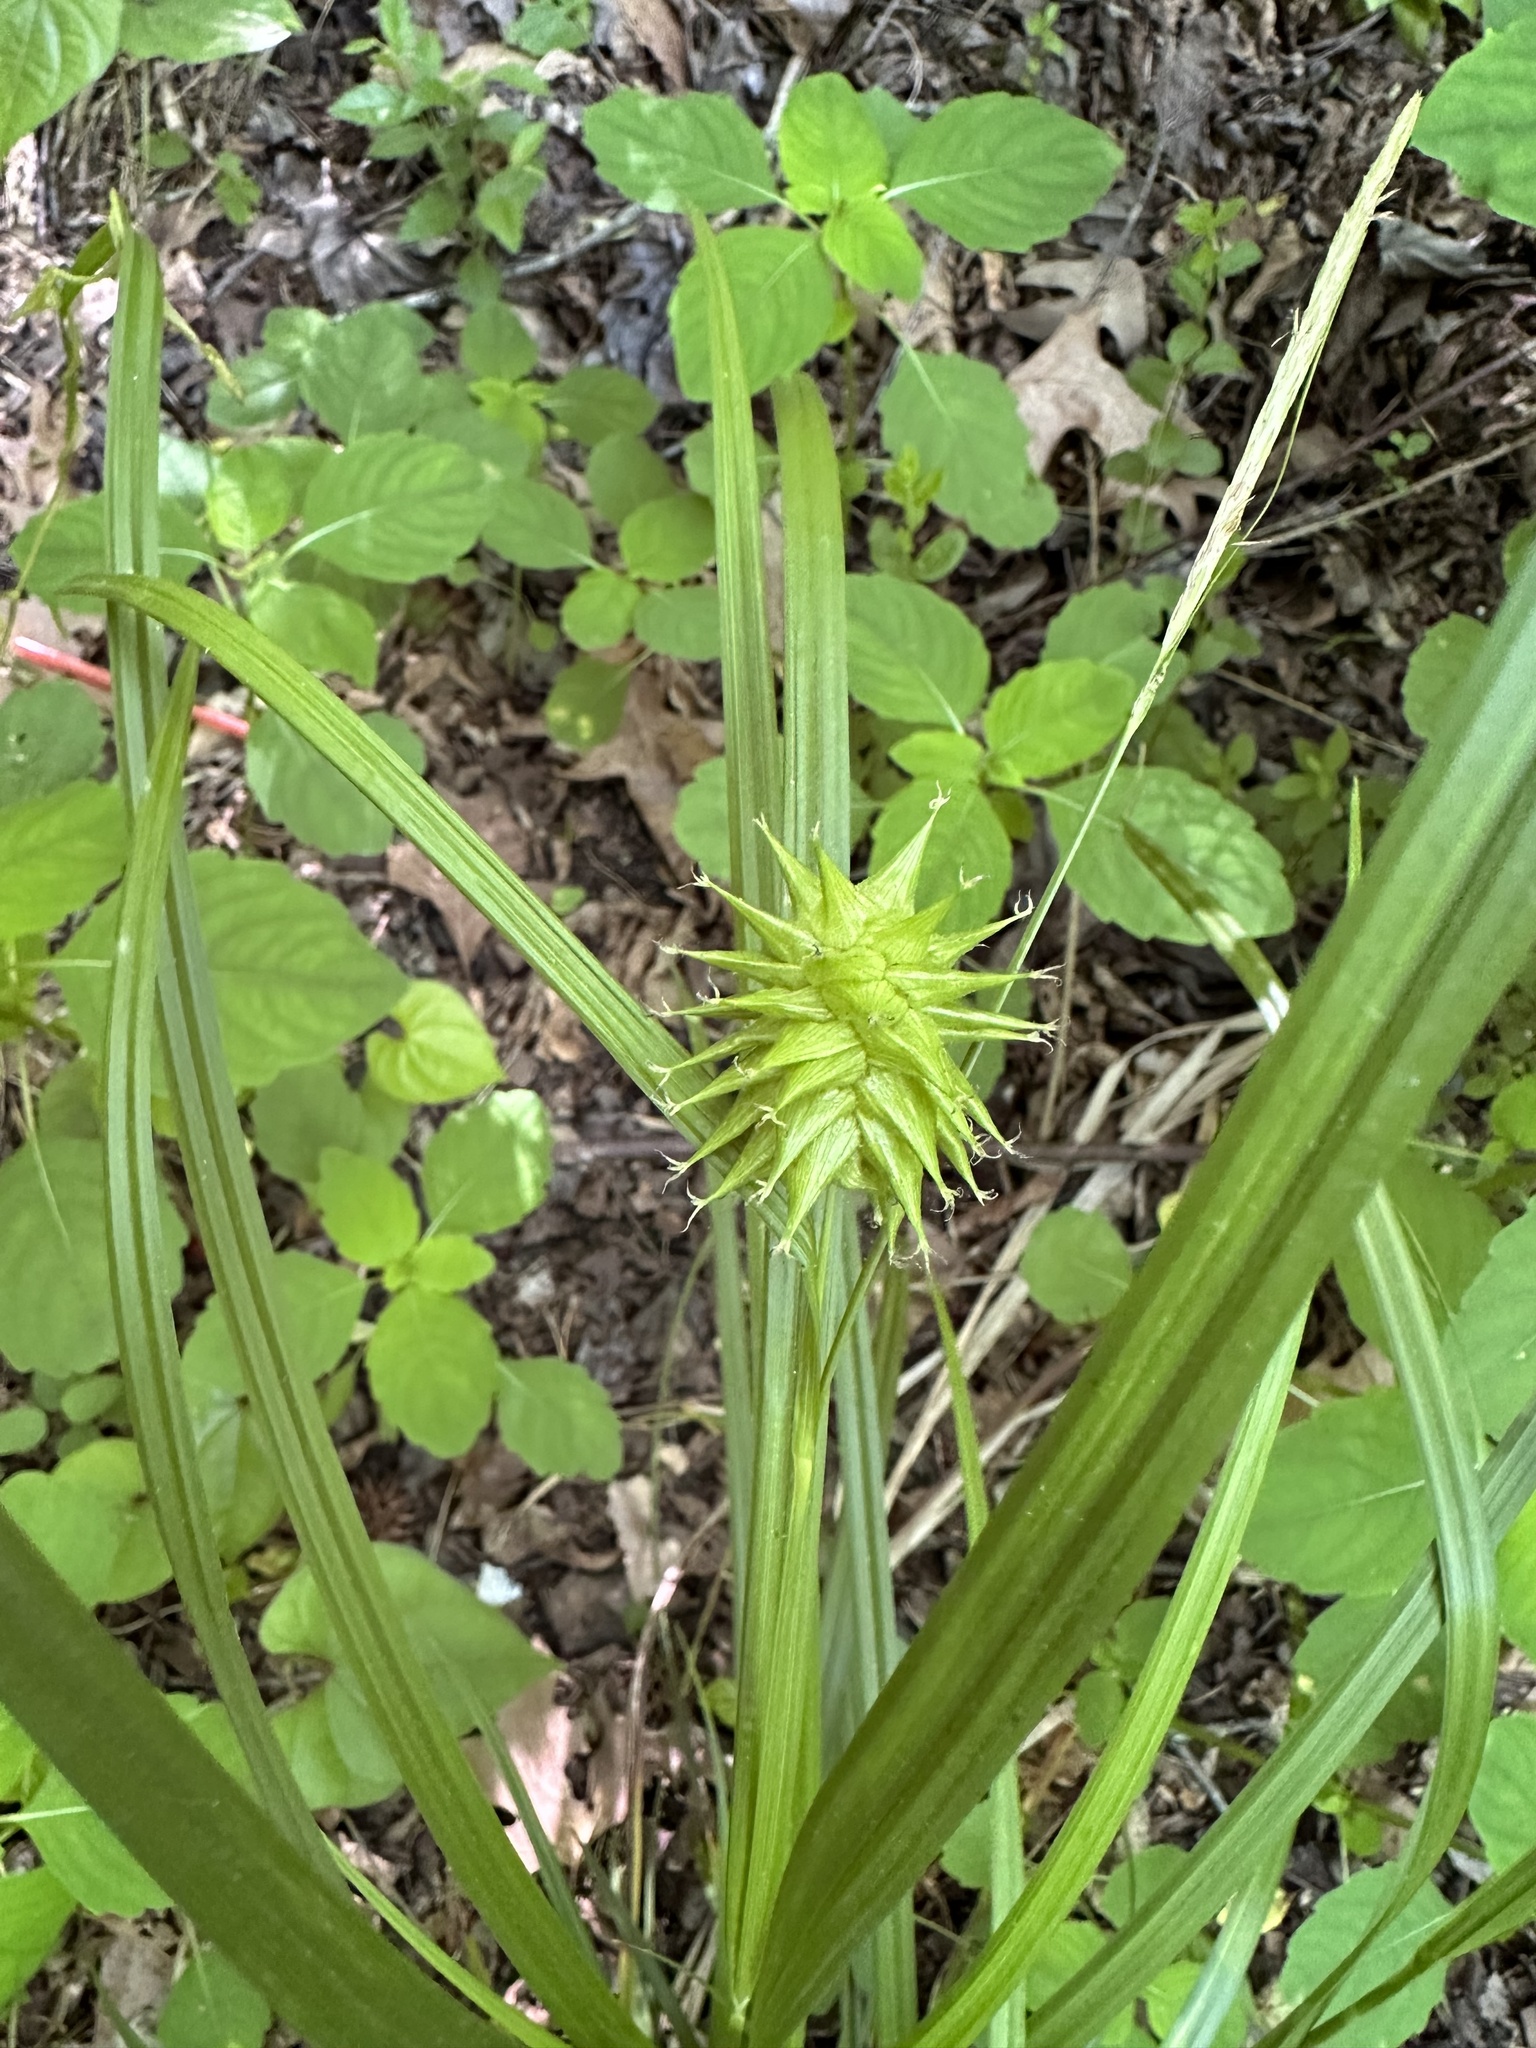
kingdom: Plantae
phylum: Tracheophyta
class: Liliopsida
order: Poales
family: Cyperaceae
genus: Carex
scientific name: Carex grayi
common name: Asa gray's sedge
